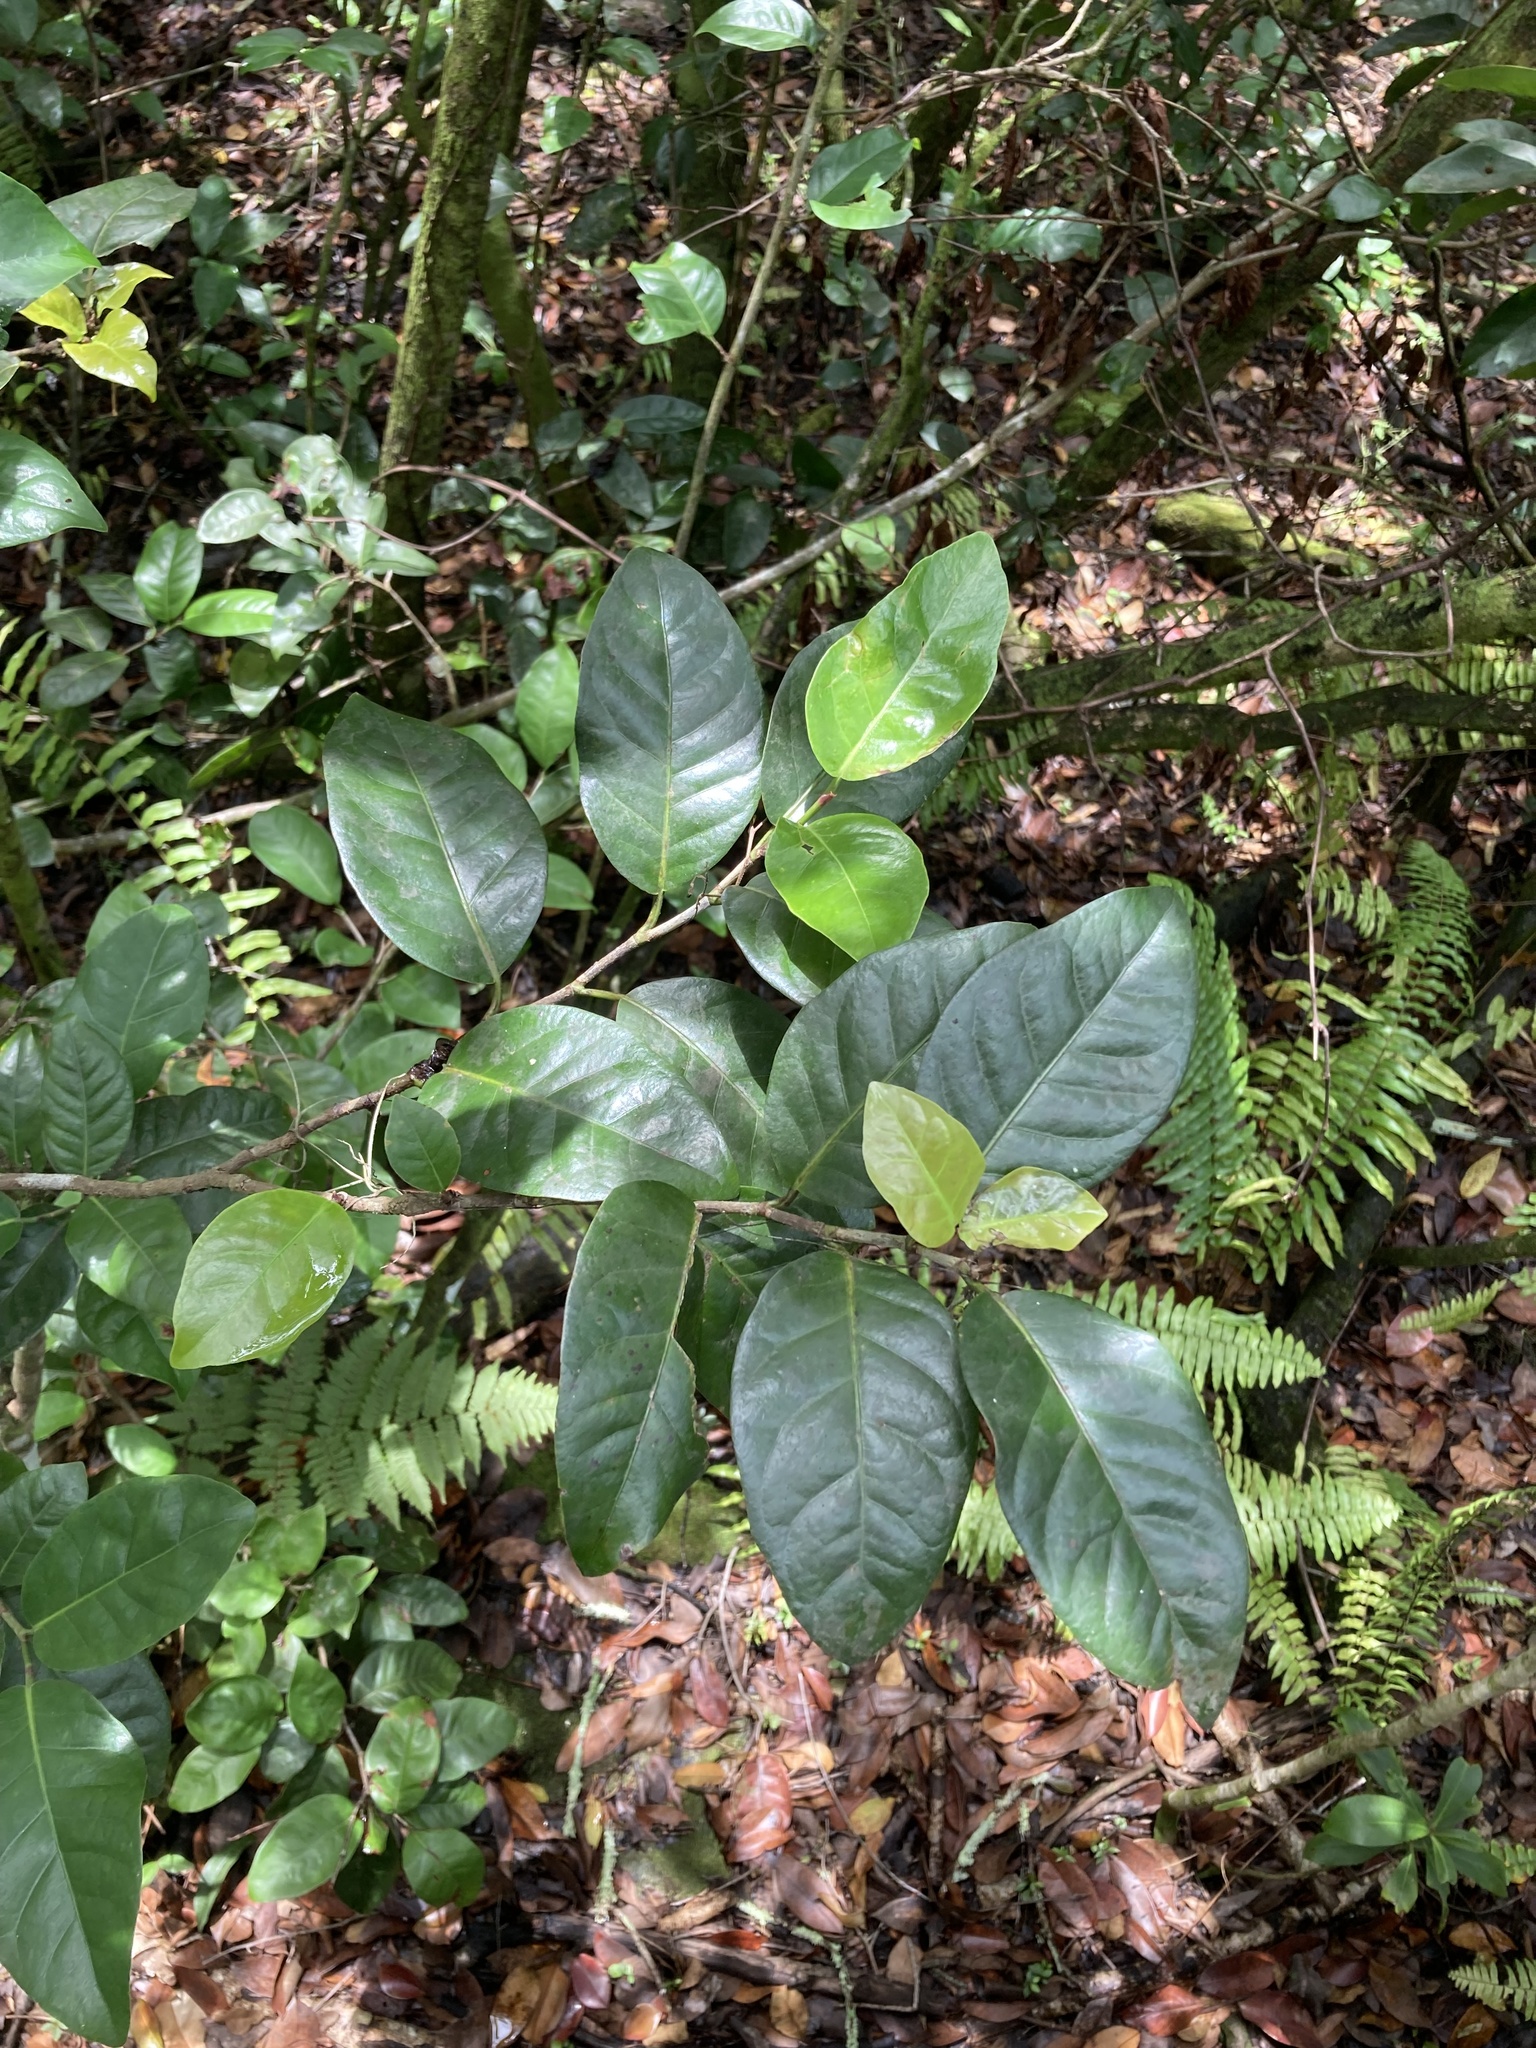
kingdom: Plantae
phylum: Tracheophyta
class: Magnoliopsida
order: Caryophyllales
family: Polygonaceae
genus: Coccoloba
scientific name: Coccoloba diversifolia
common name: Pigeon-plum
